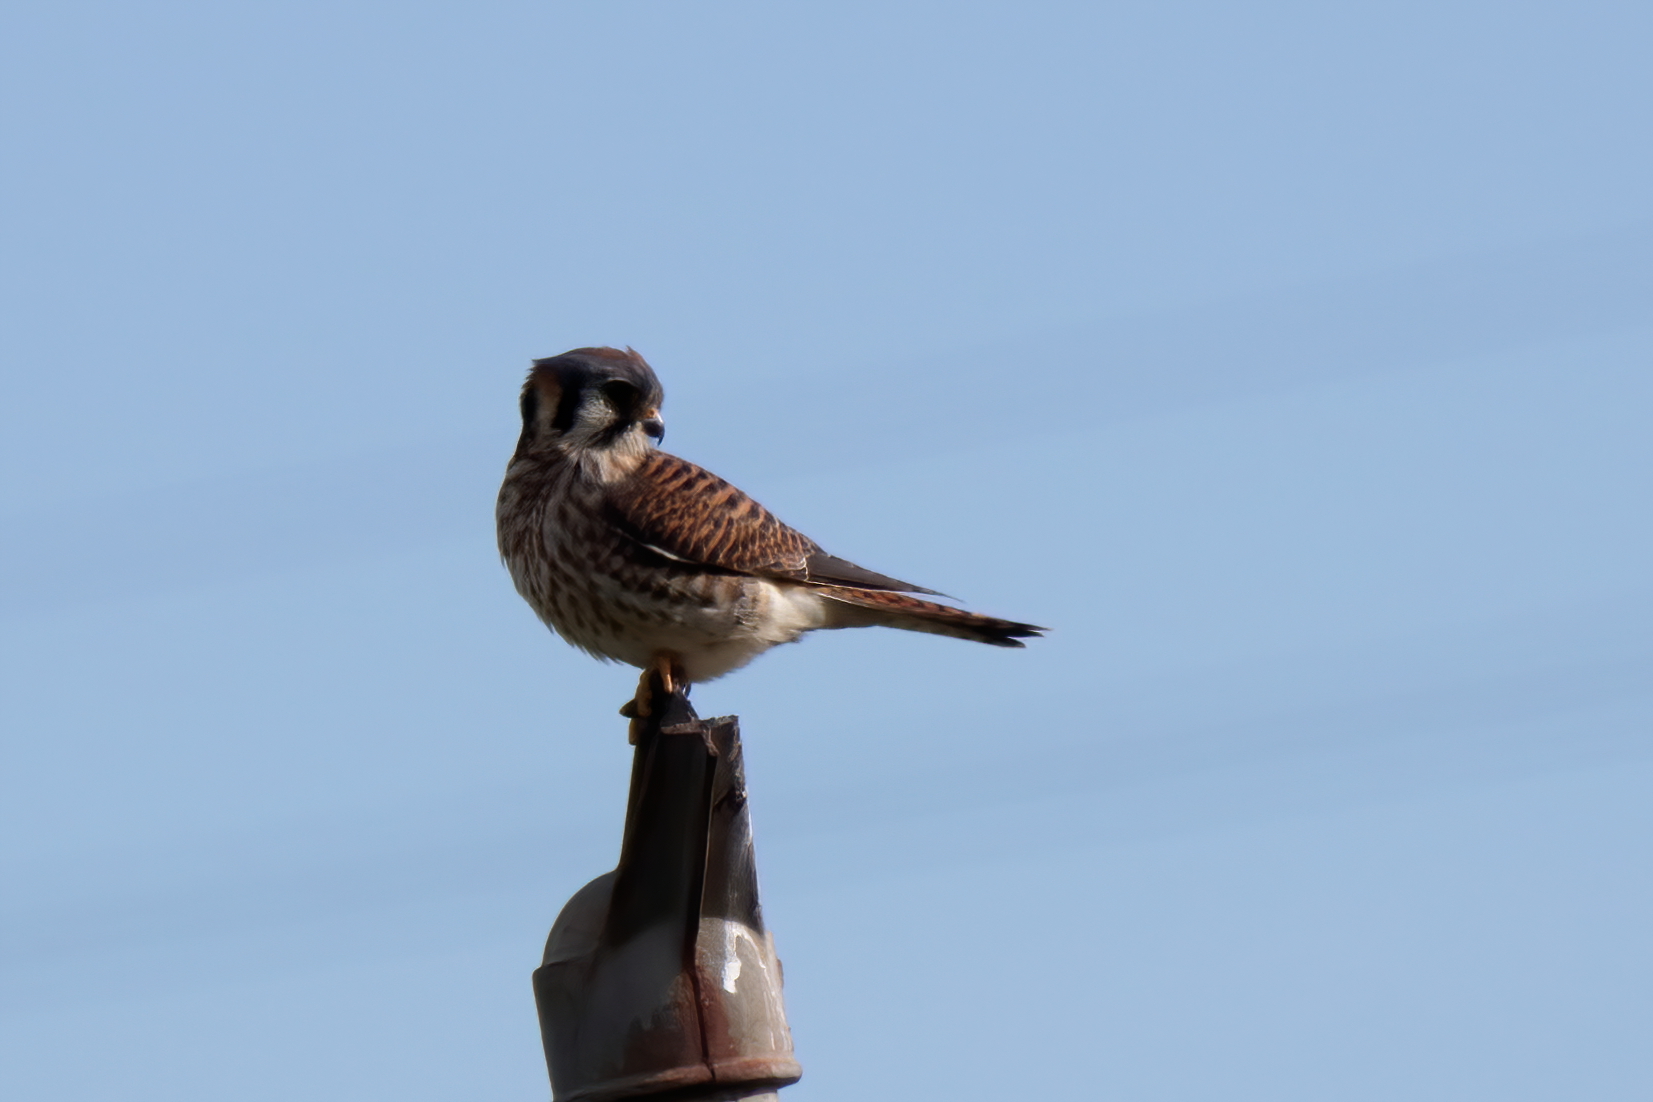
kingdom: Animalia
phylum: Chordata
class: Aves
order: Falconiformes
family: Falconidae
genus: Falco
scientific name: Falco sparverius
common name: American kestrel
